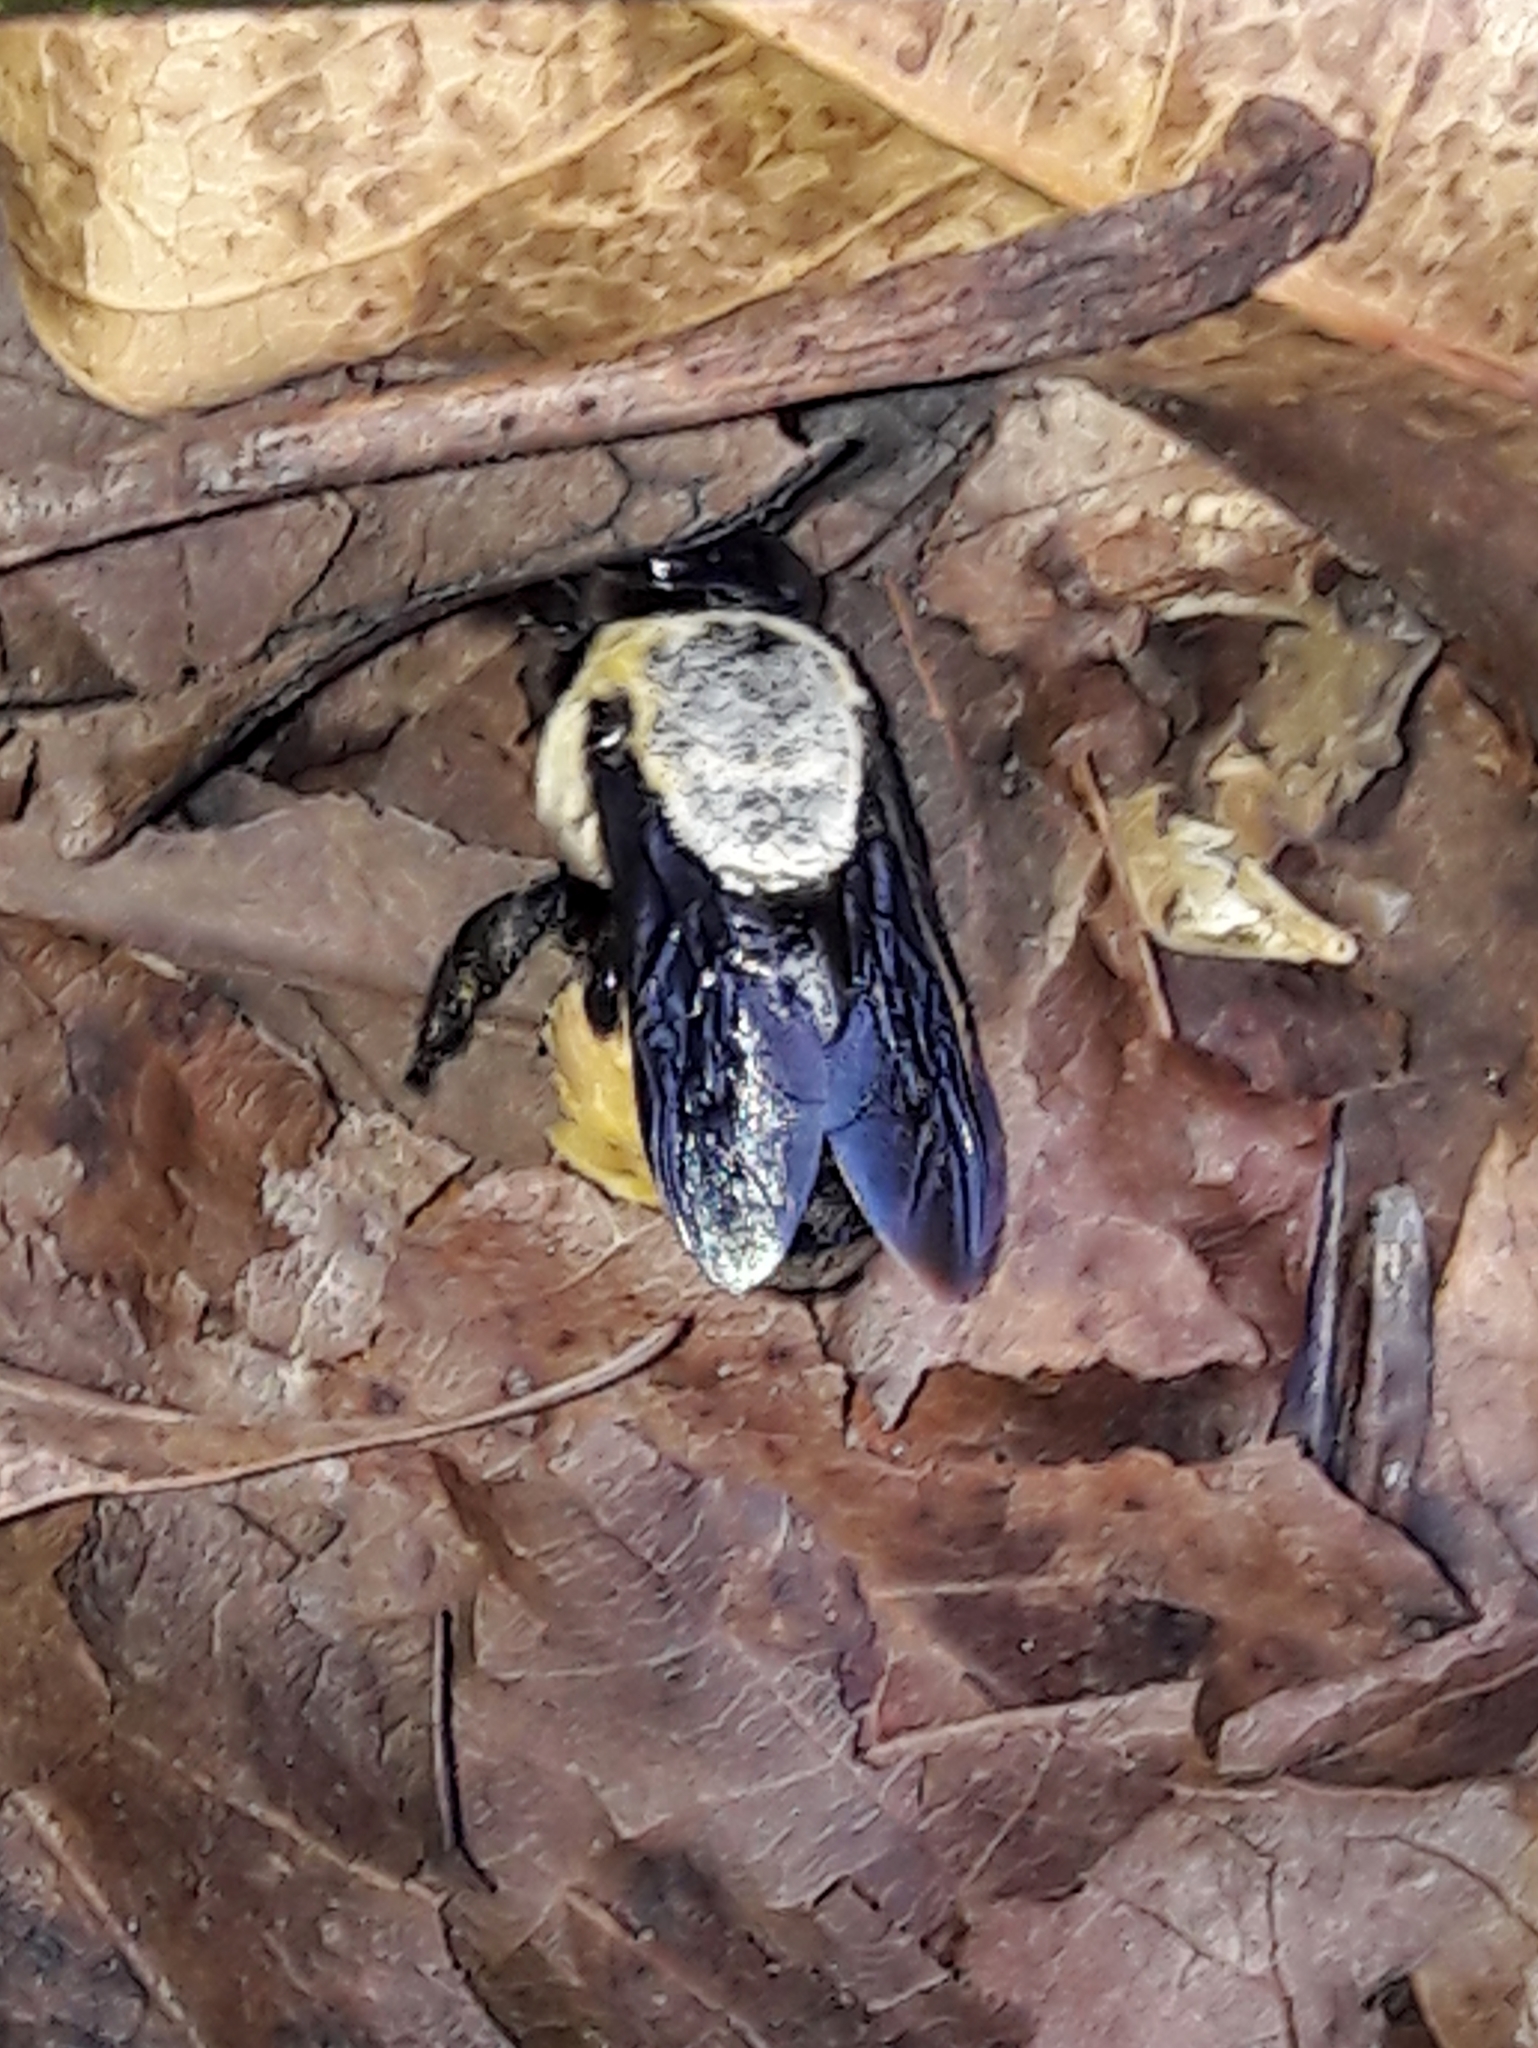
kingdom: Animalia
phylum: Arthropoda
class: Insecta
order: Hymenoptera
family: Apidae
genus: Centris
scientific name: Centris mocsaryi
